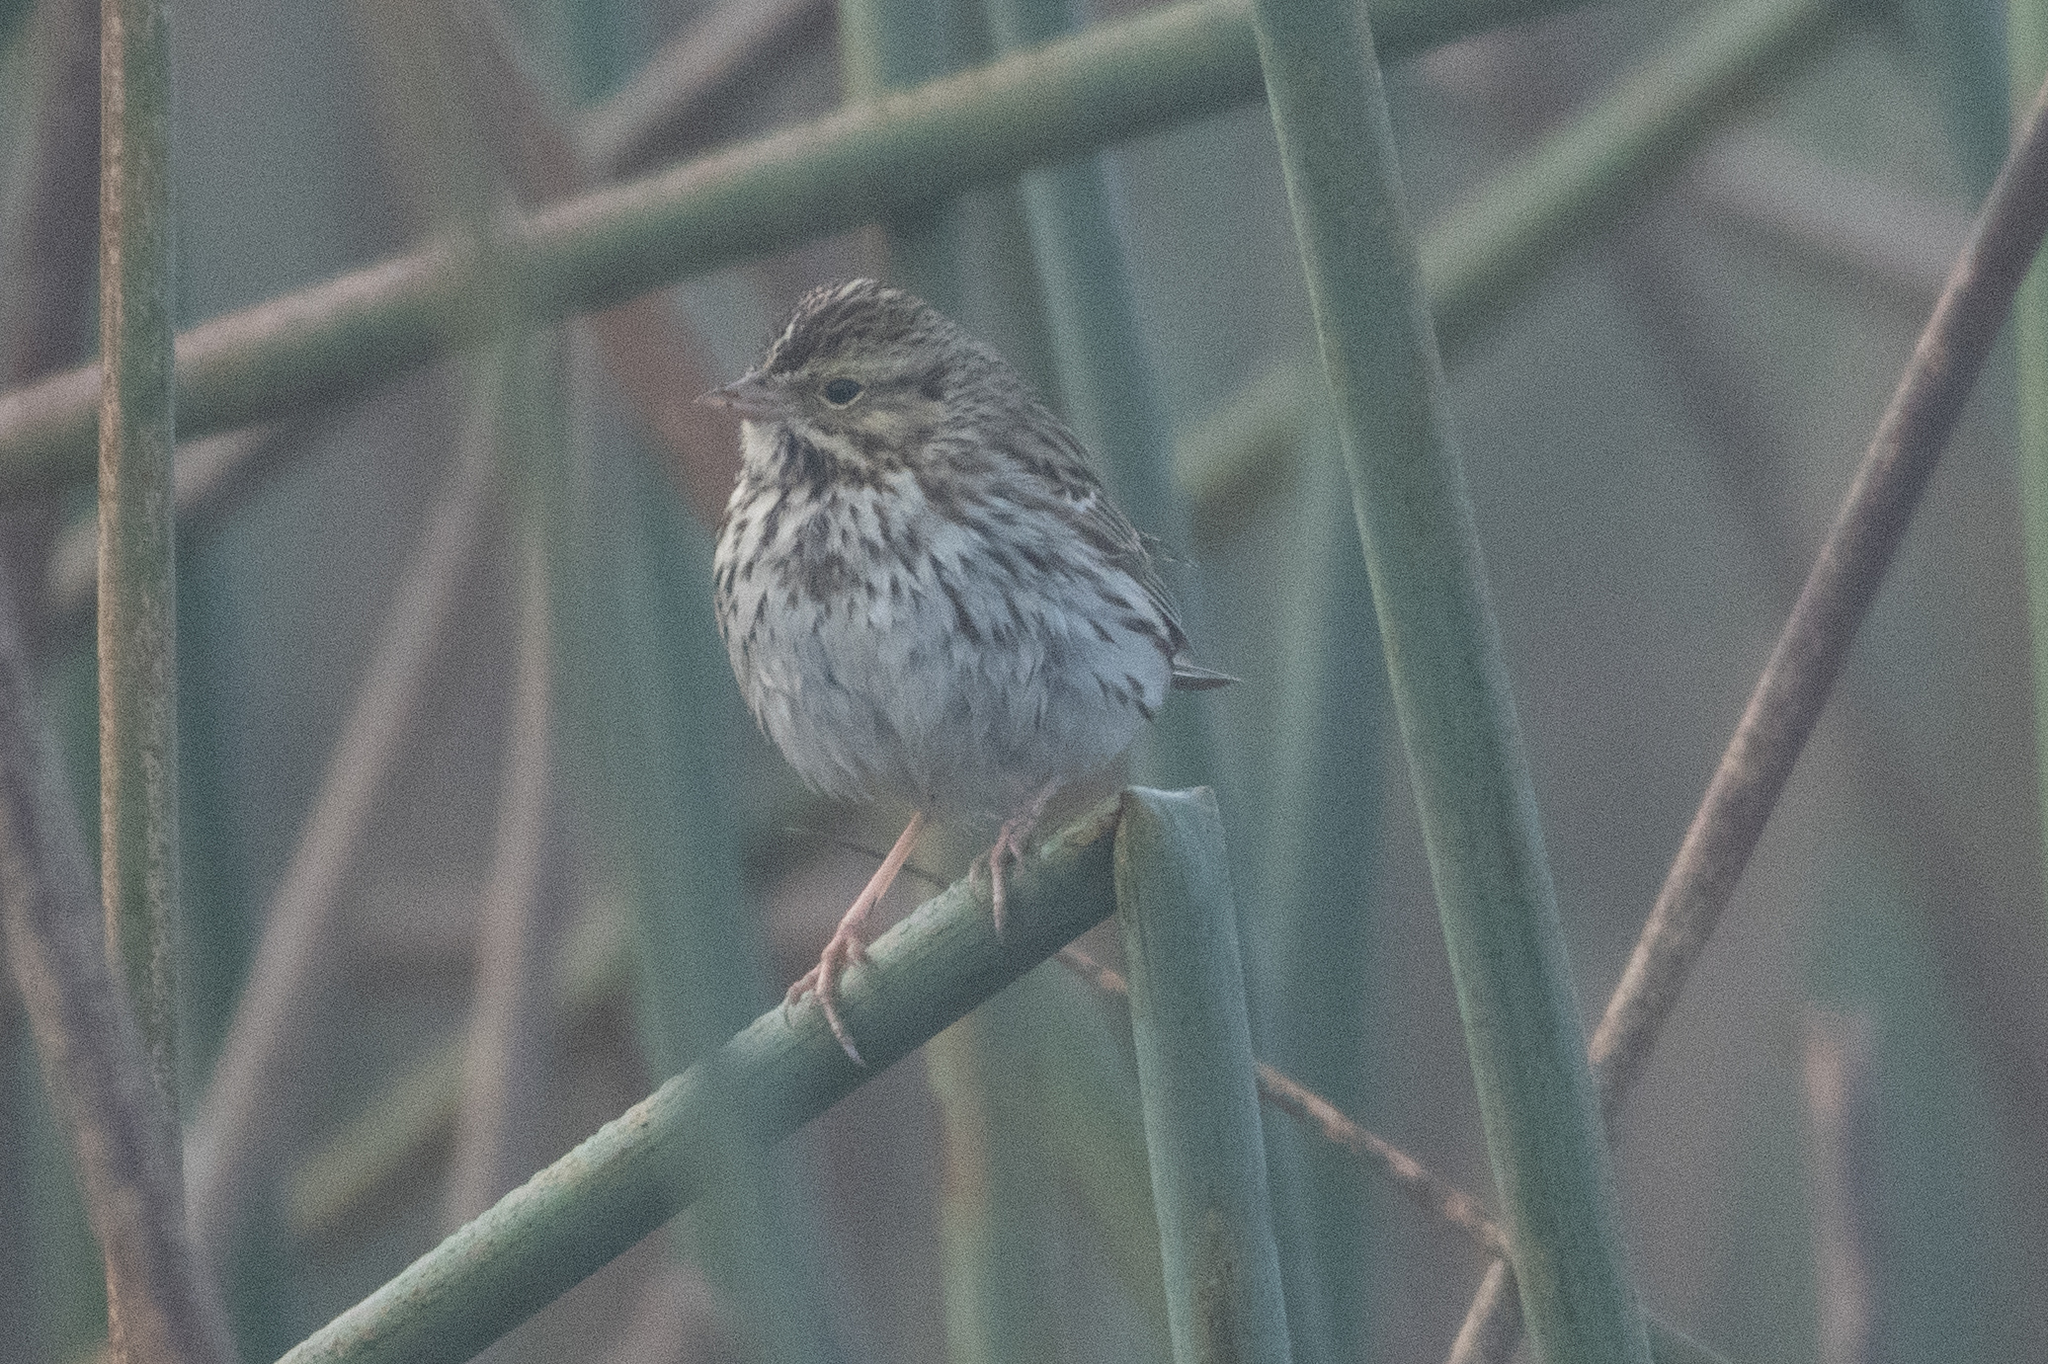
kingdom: Animalia
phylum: Chordata
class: Aves
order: Passeriformes
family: Passerellidae
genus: Passerculus
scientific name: Passerculus sandwichensis
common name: Savannah sparrow
